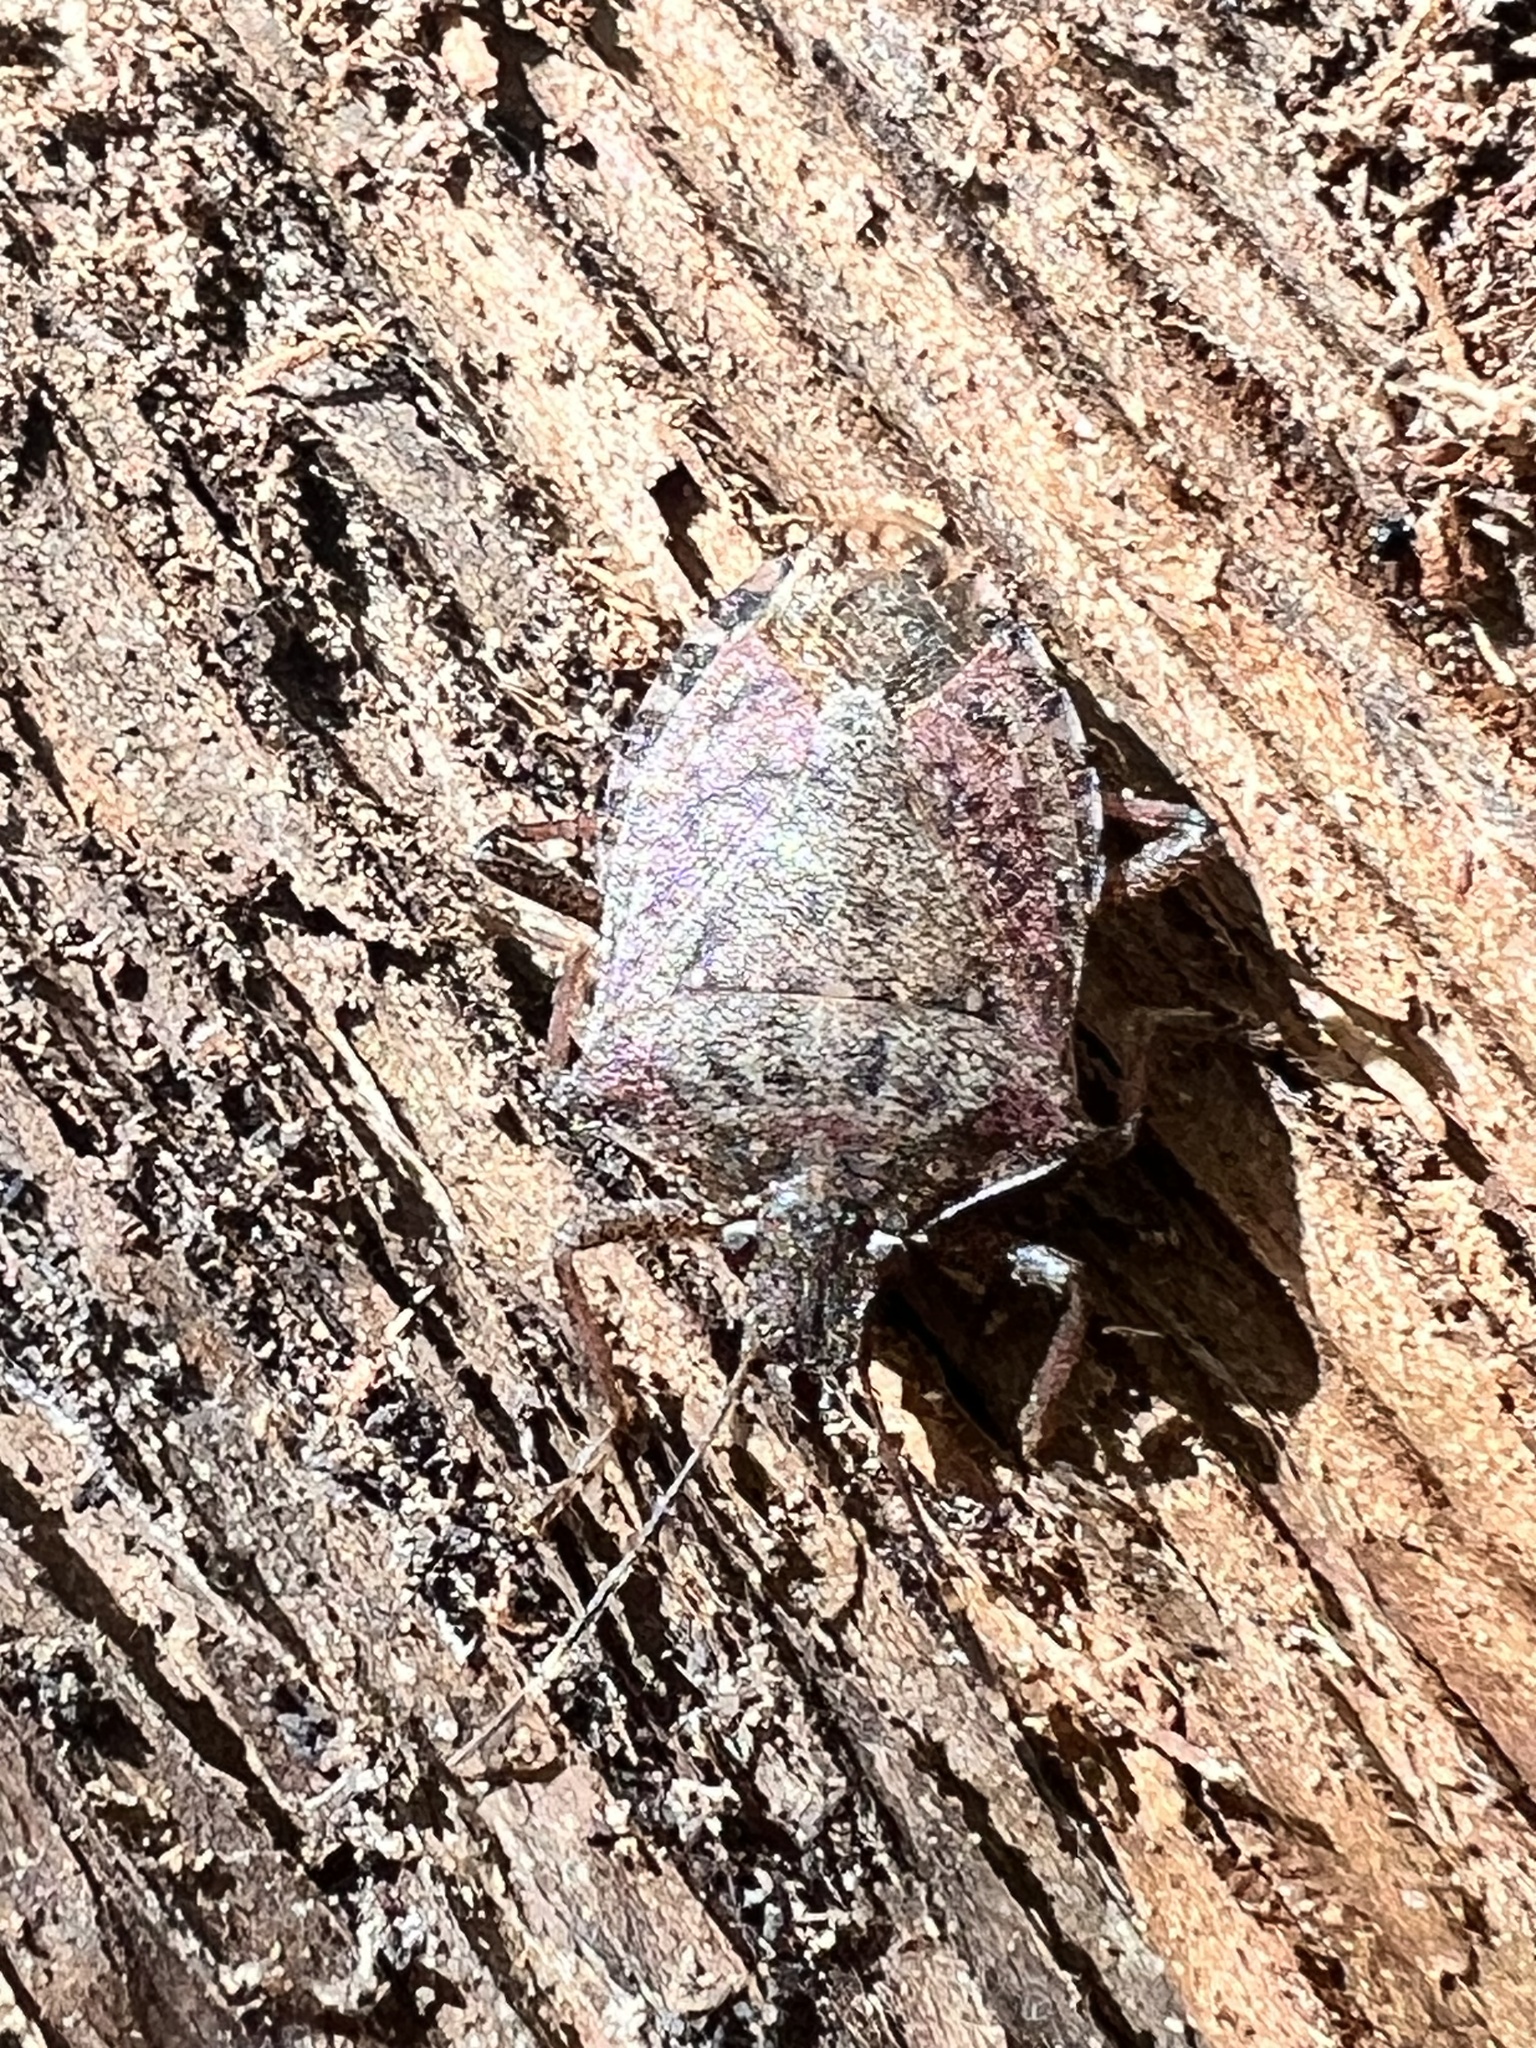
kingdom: Animalia
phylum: Arthropoda
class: Insecta
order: Hemiptera
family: Pentatomidae
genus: Halyomorpha
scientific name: Halyomorpha halys
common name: Brown marmorated stink bug
